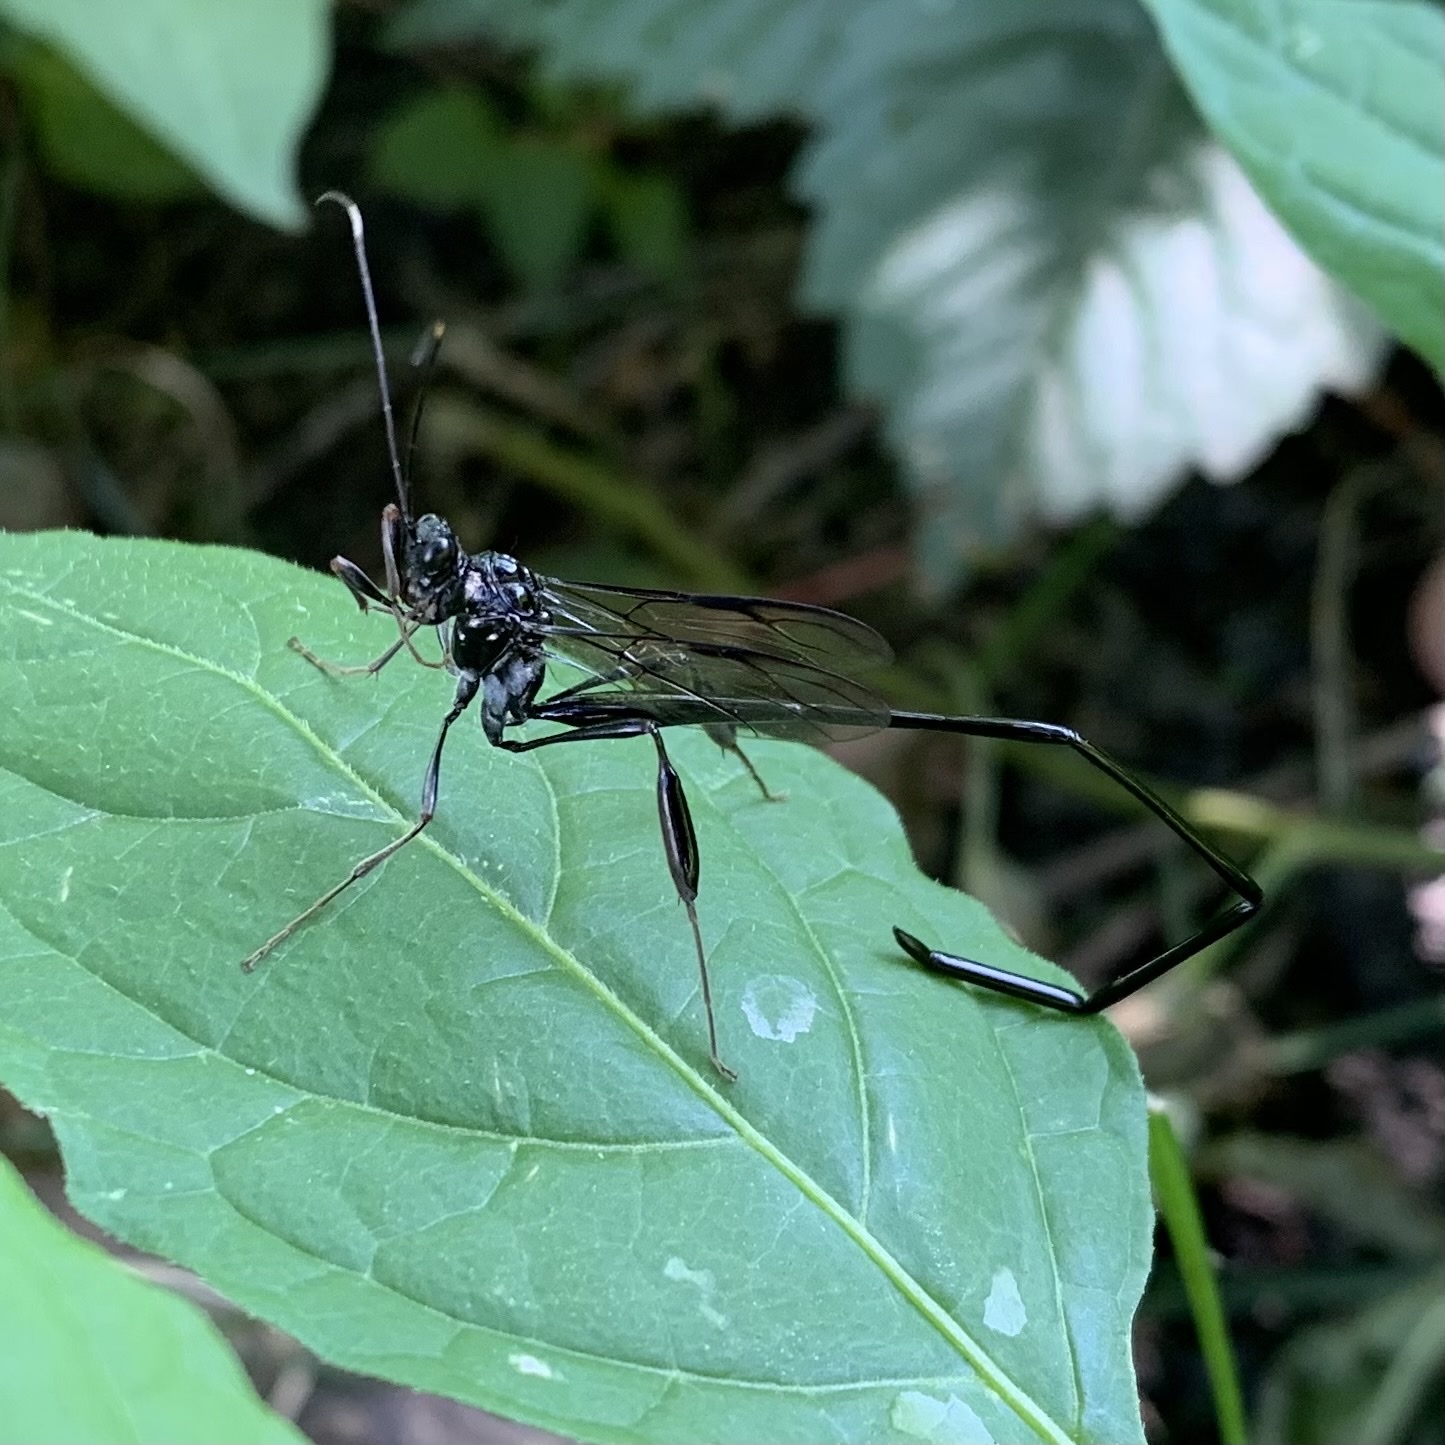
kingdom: Animalia
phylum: Arthropoda
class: Insecta
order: Hymenoptera
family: Pelecinidae
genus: Pelecinus
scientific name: Pelecinus polyturator
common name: American pelecinid wasp
